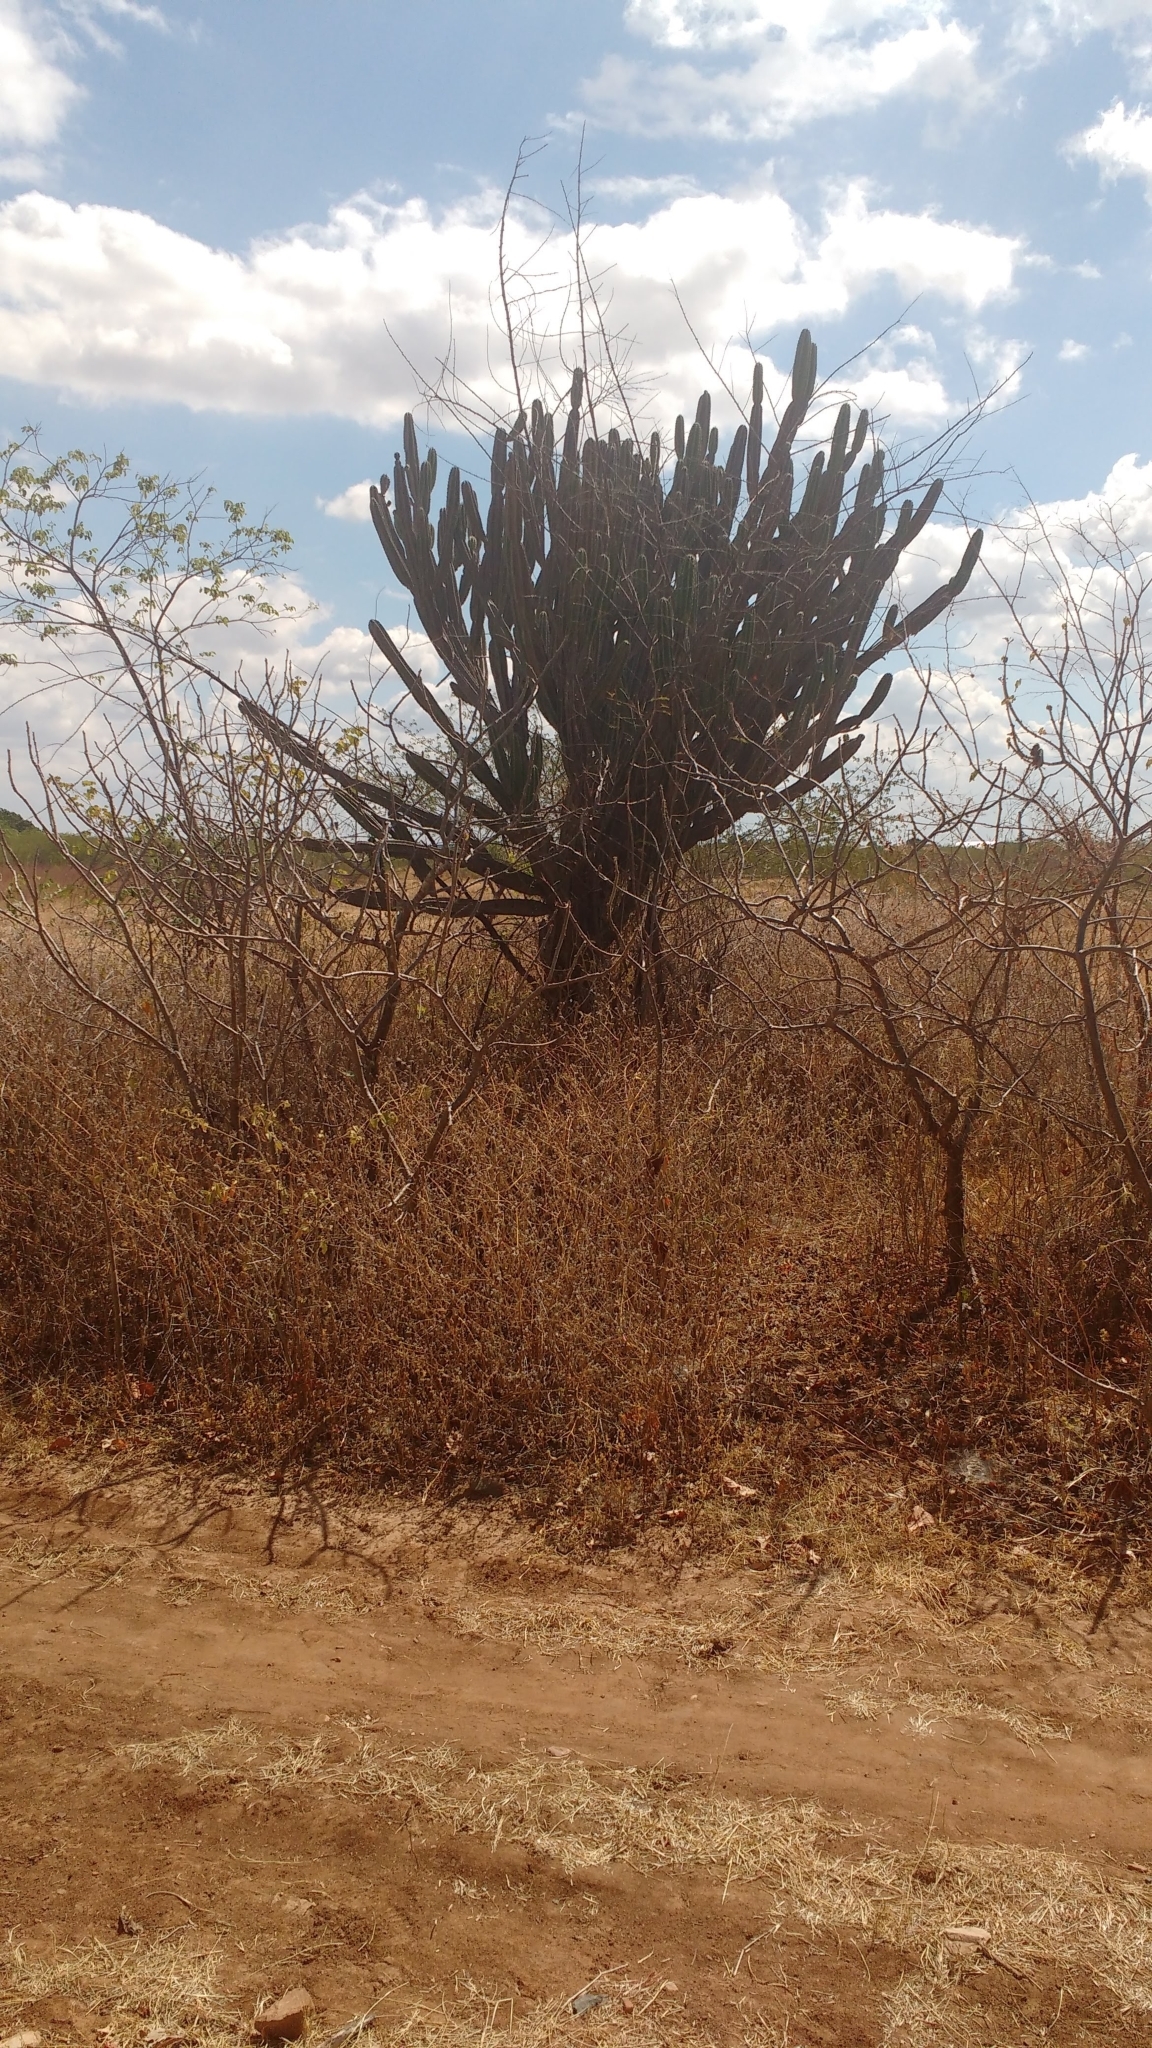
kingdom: Plantae
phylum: Tracheophyta
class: Magnoliopsida
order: Caryophyllales
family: Cactaceae
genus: Cereus
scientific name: Cereus jamacaru
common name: Queen-of-the-night
